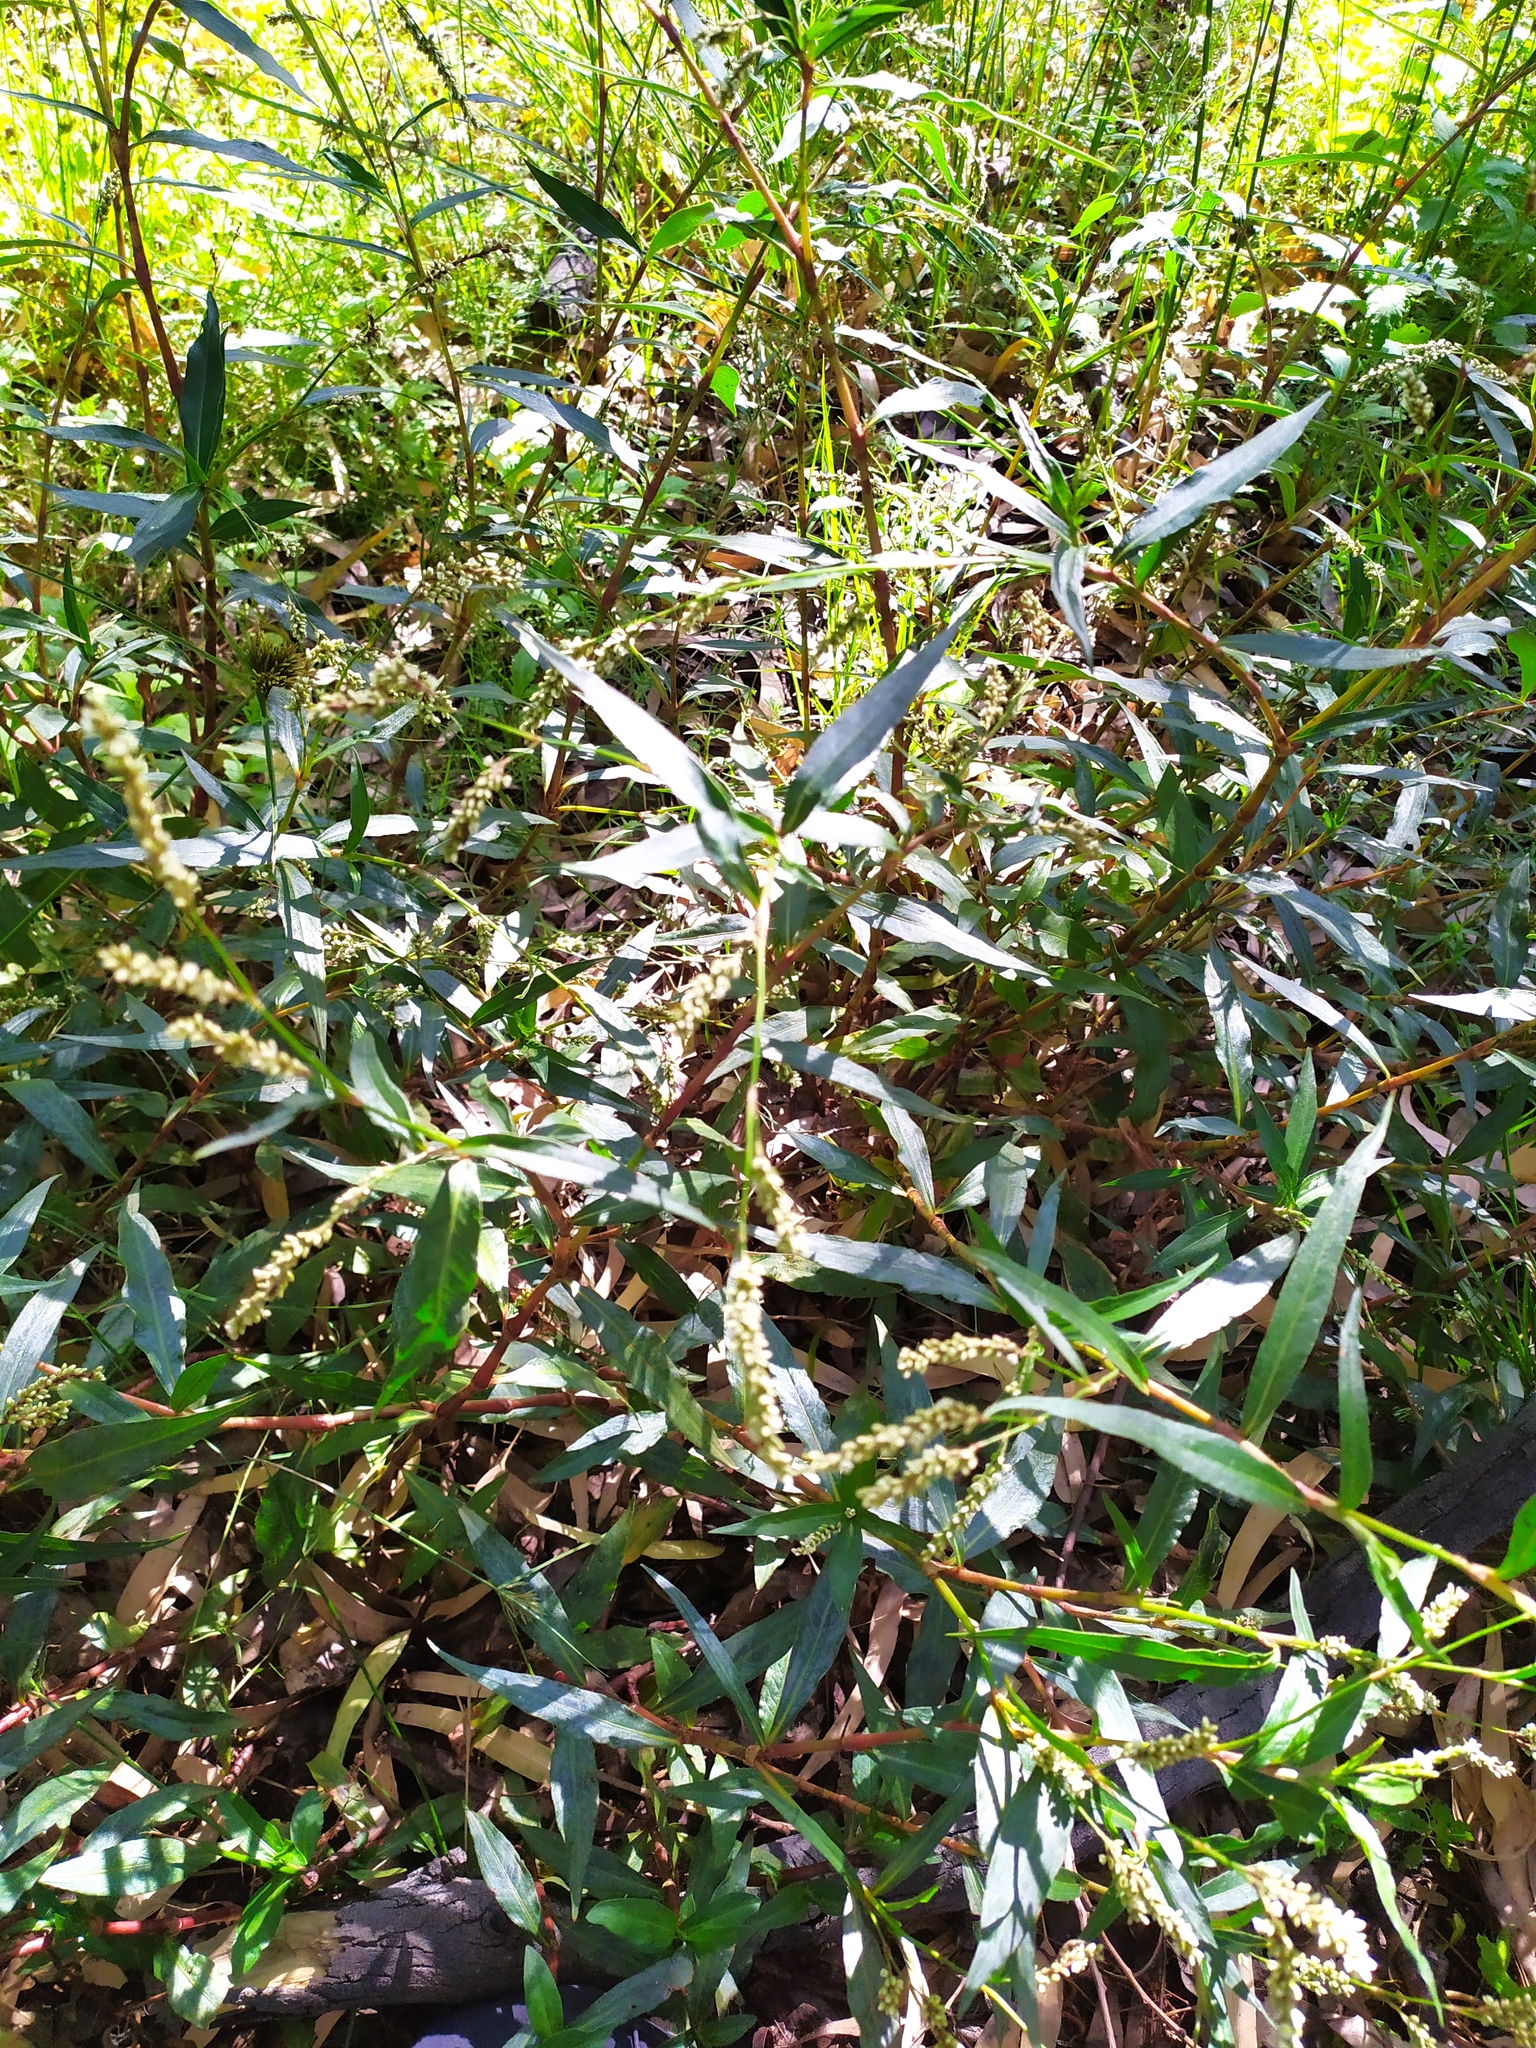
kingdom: Plantae
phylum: Tracheophyta
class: Magnoliopsida
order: Caryophyllales
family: Polygonaceae
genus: Persicaria
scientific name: Persicaria decipiens
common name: Willow-weed
